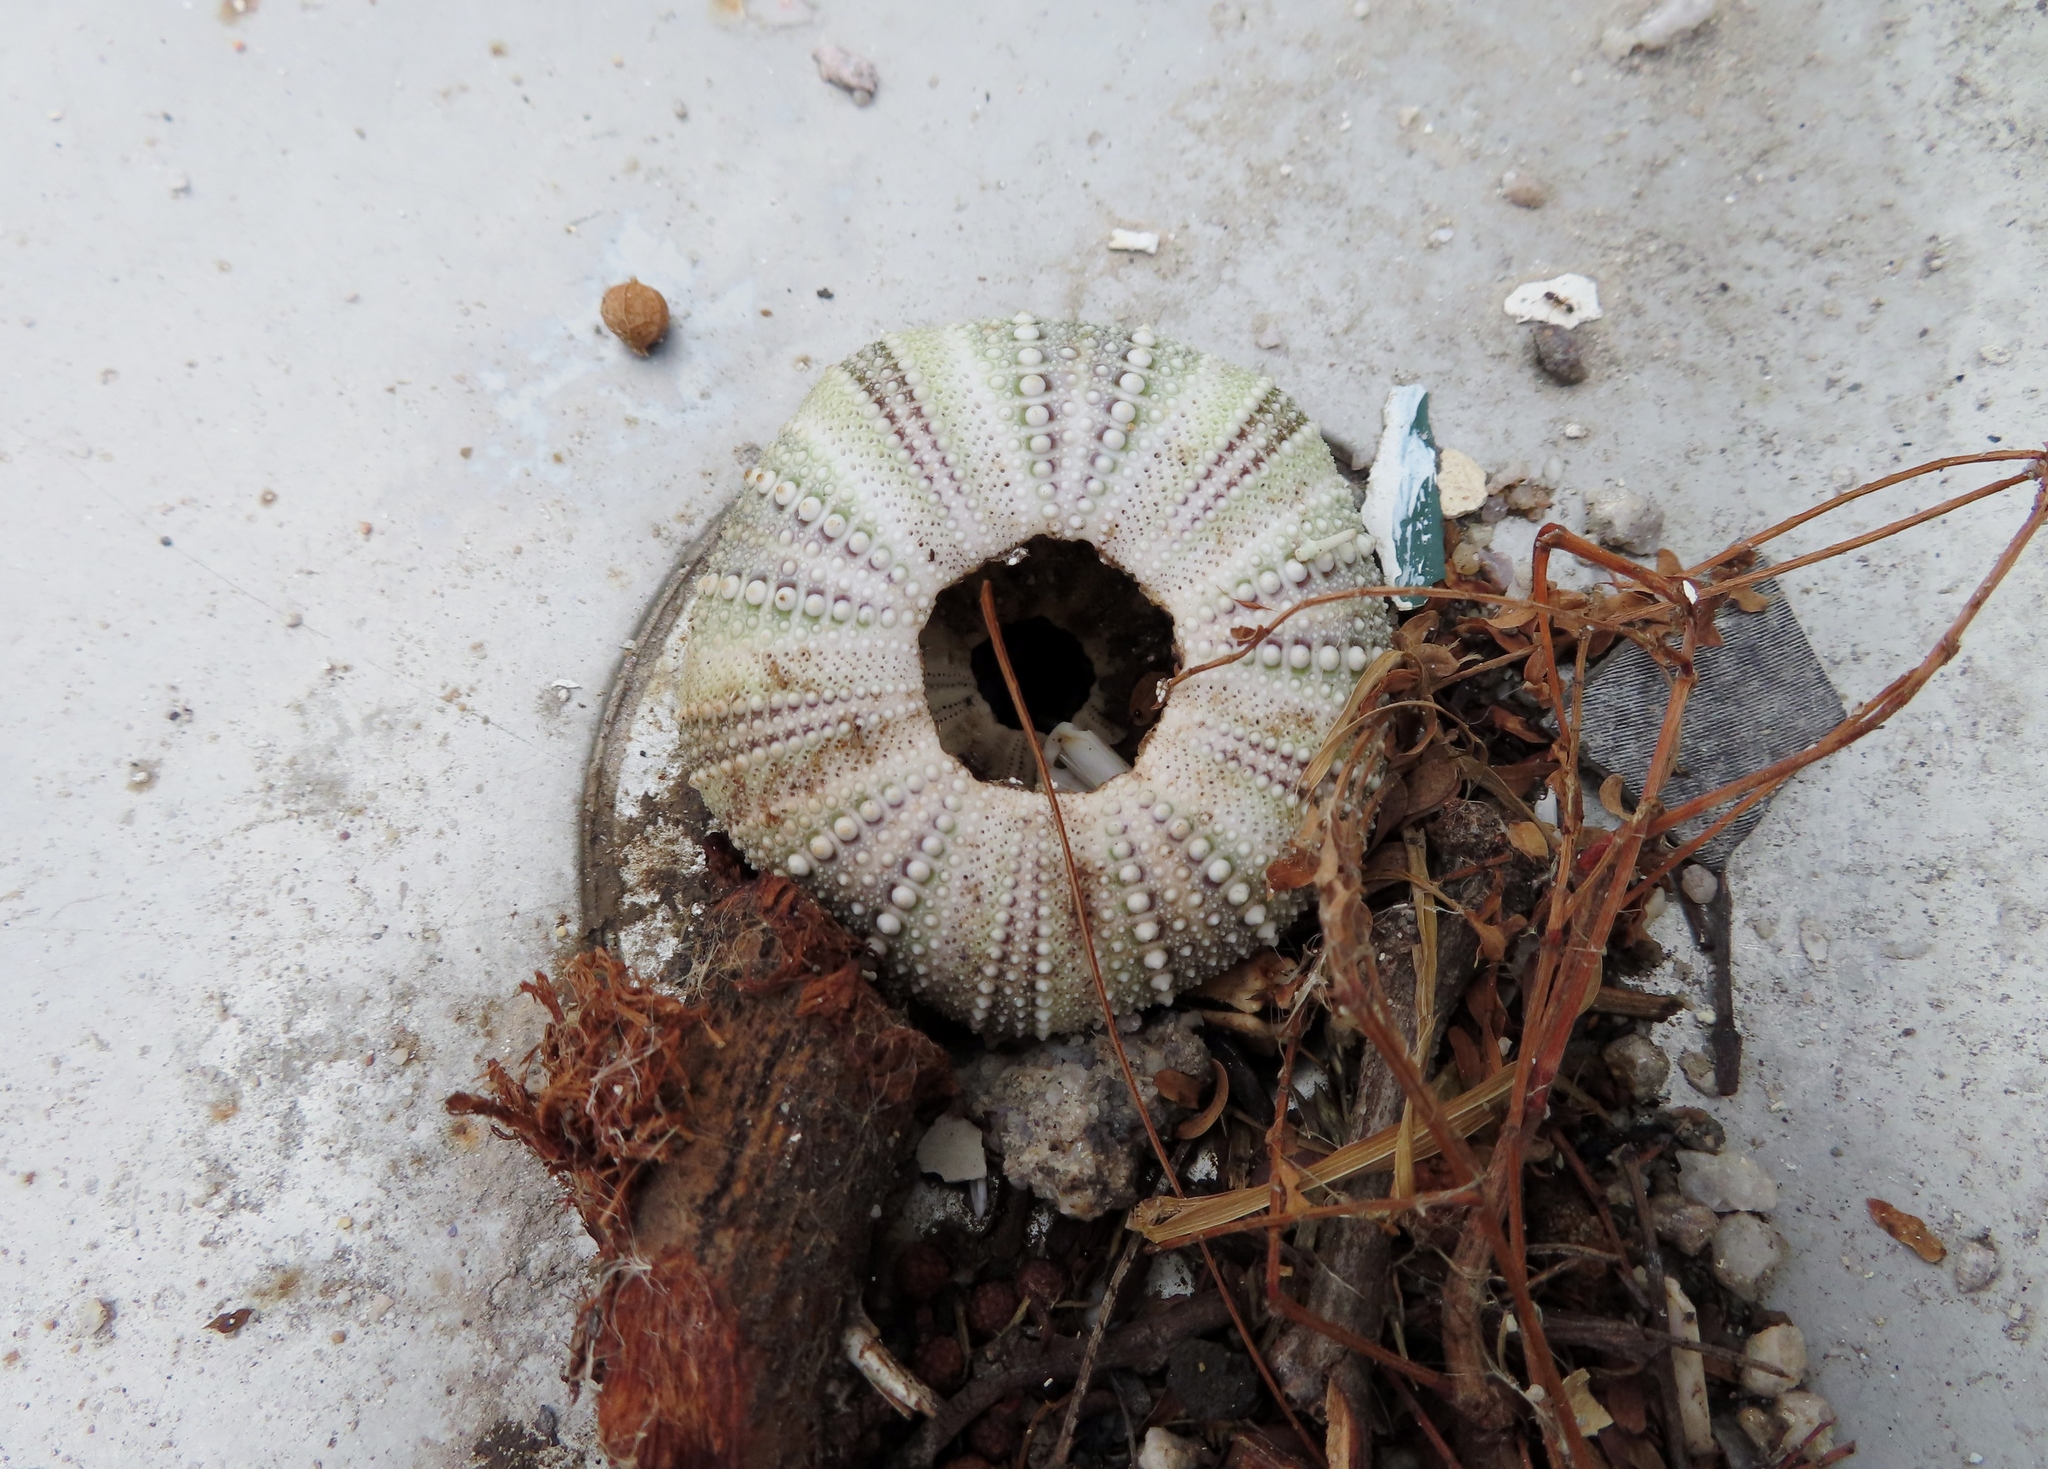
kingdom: Animalia
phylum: Echinodermata
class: Echinoidea
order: Camarodonta
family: Parechinidae
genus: Parechinus
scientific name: Parechinus angulosus
